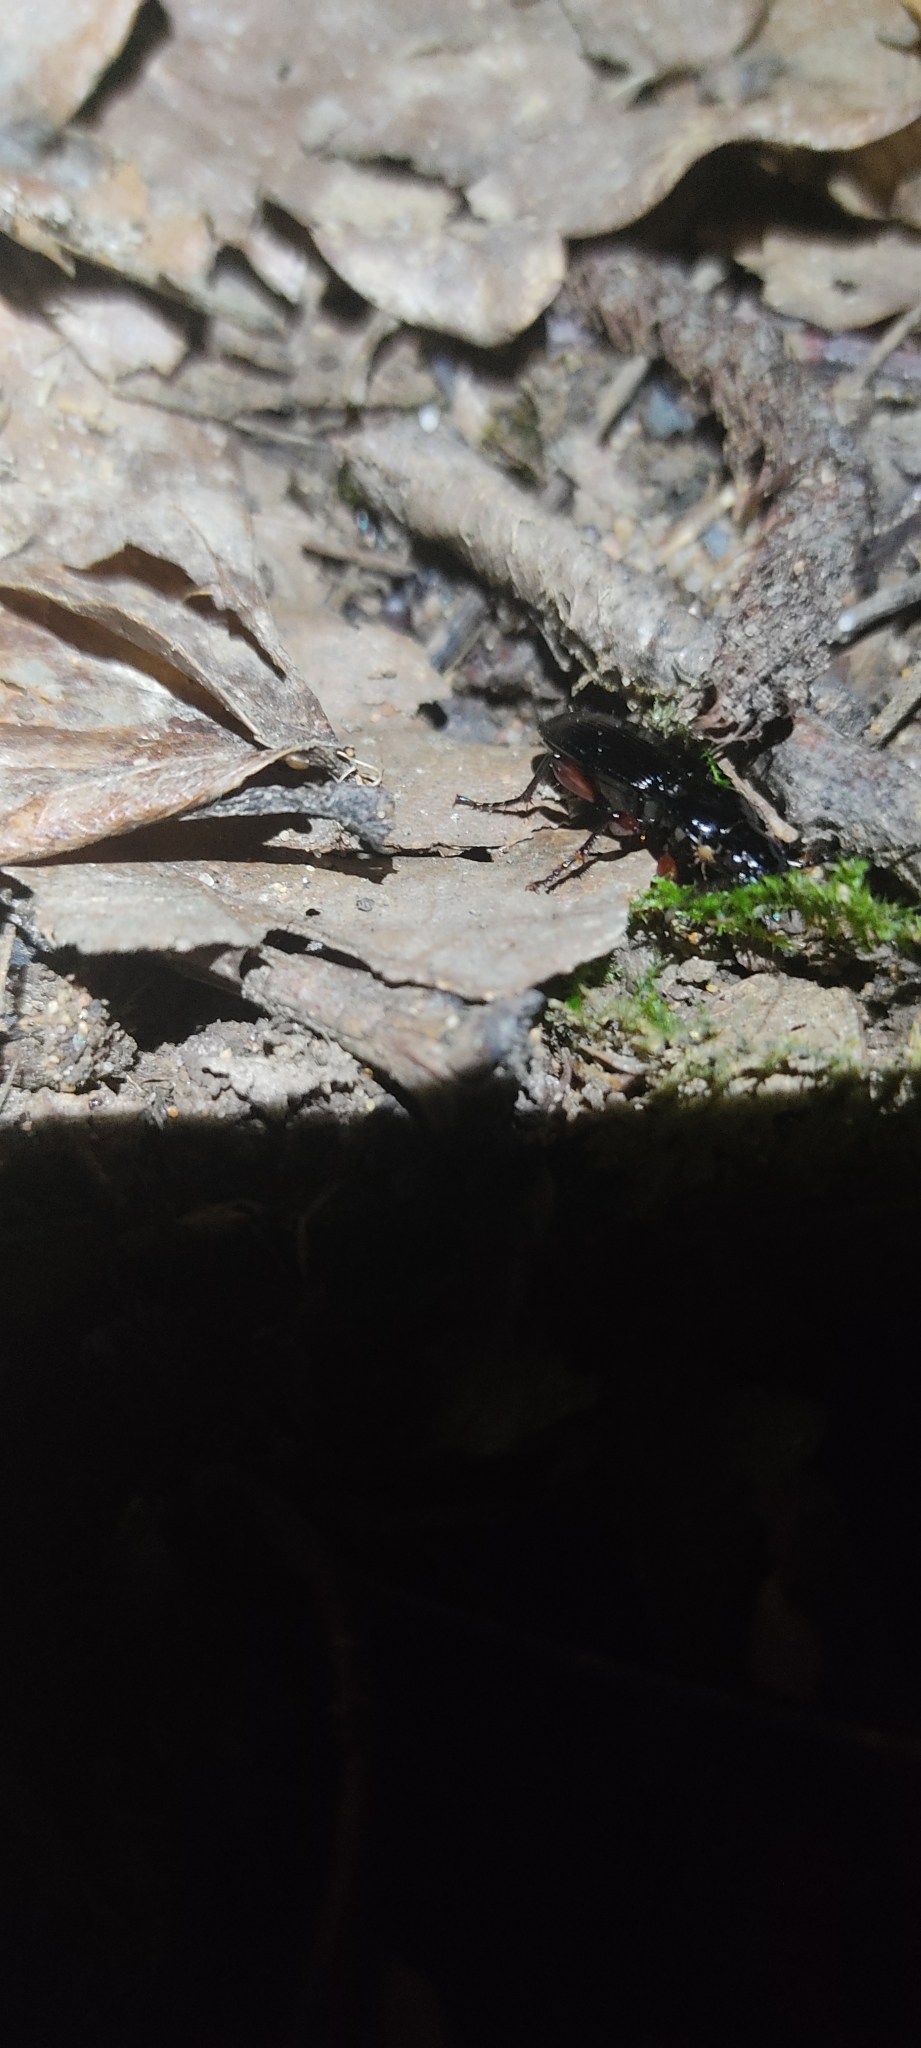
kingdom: Animalia
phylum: Arthropoda
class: Insecta
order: Coleoptera
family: Carabidae
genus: Pterostichus
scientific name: Pterostichus madidus
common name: Black clock
